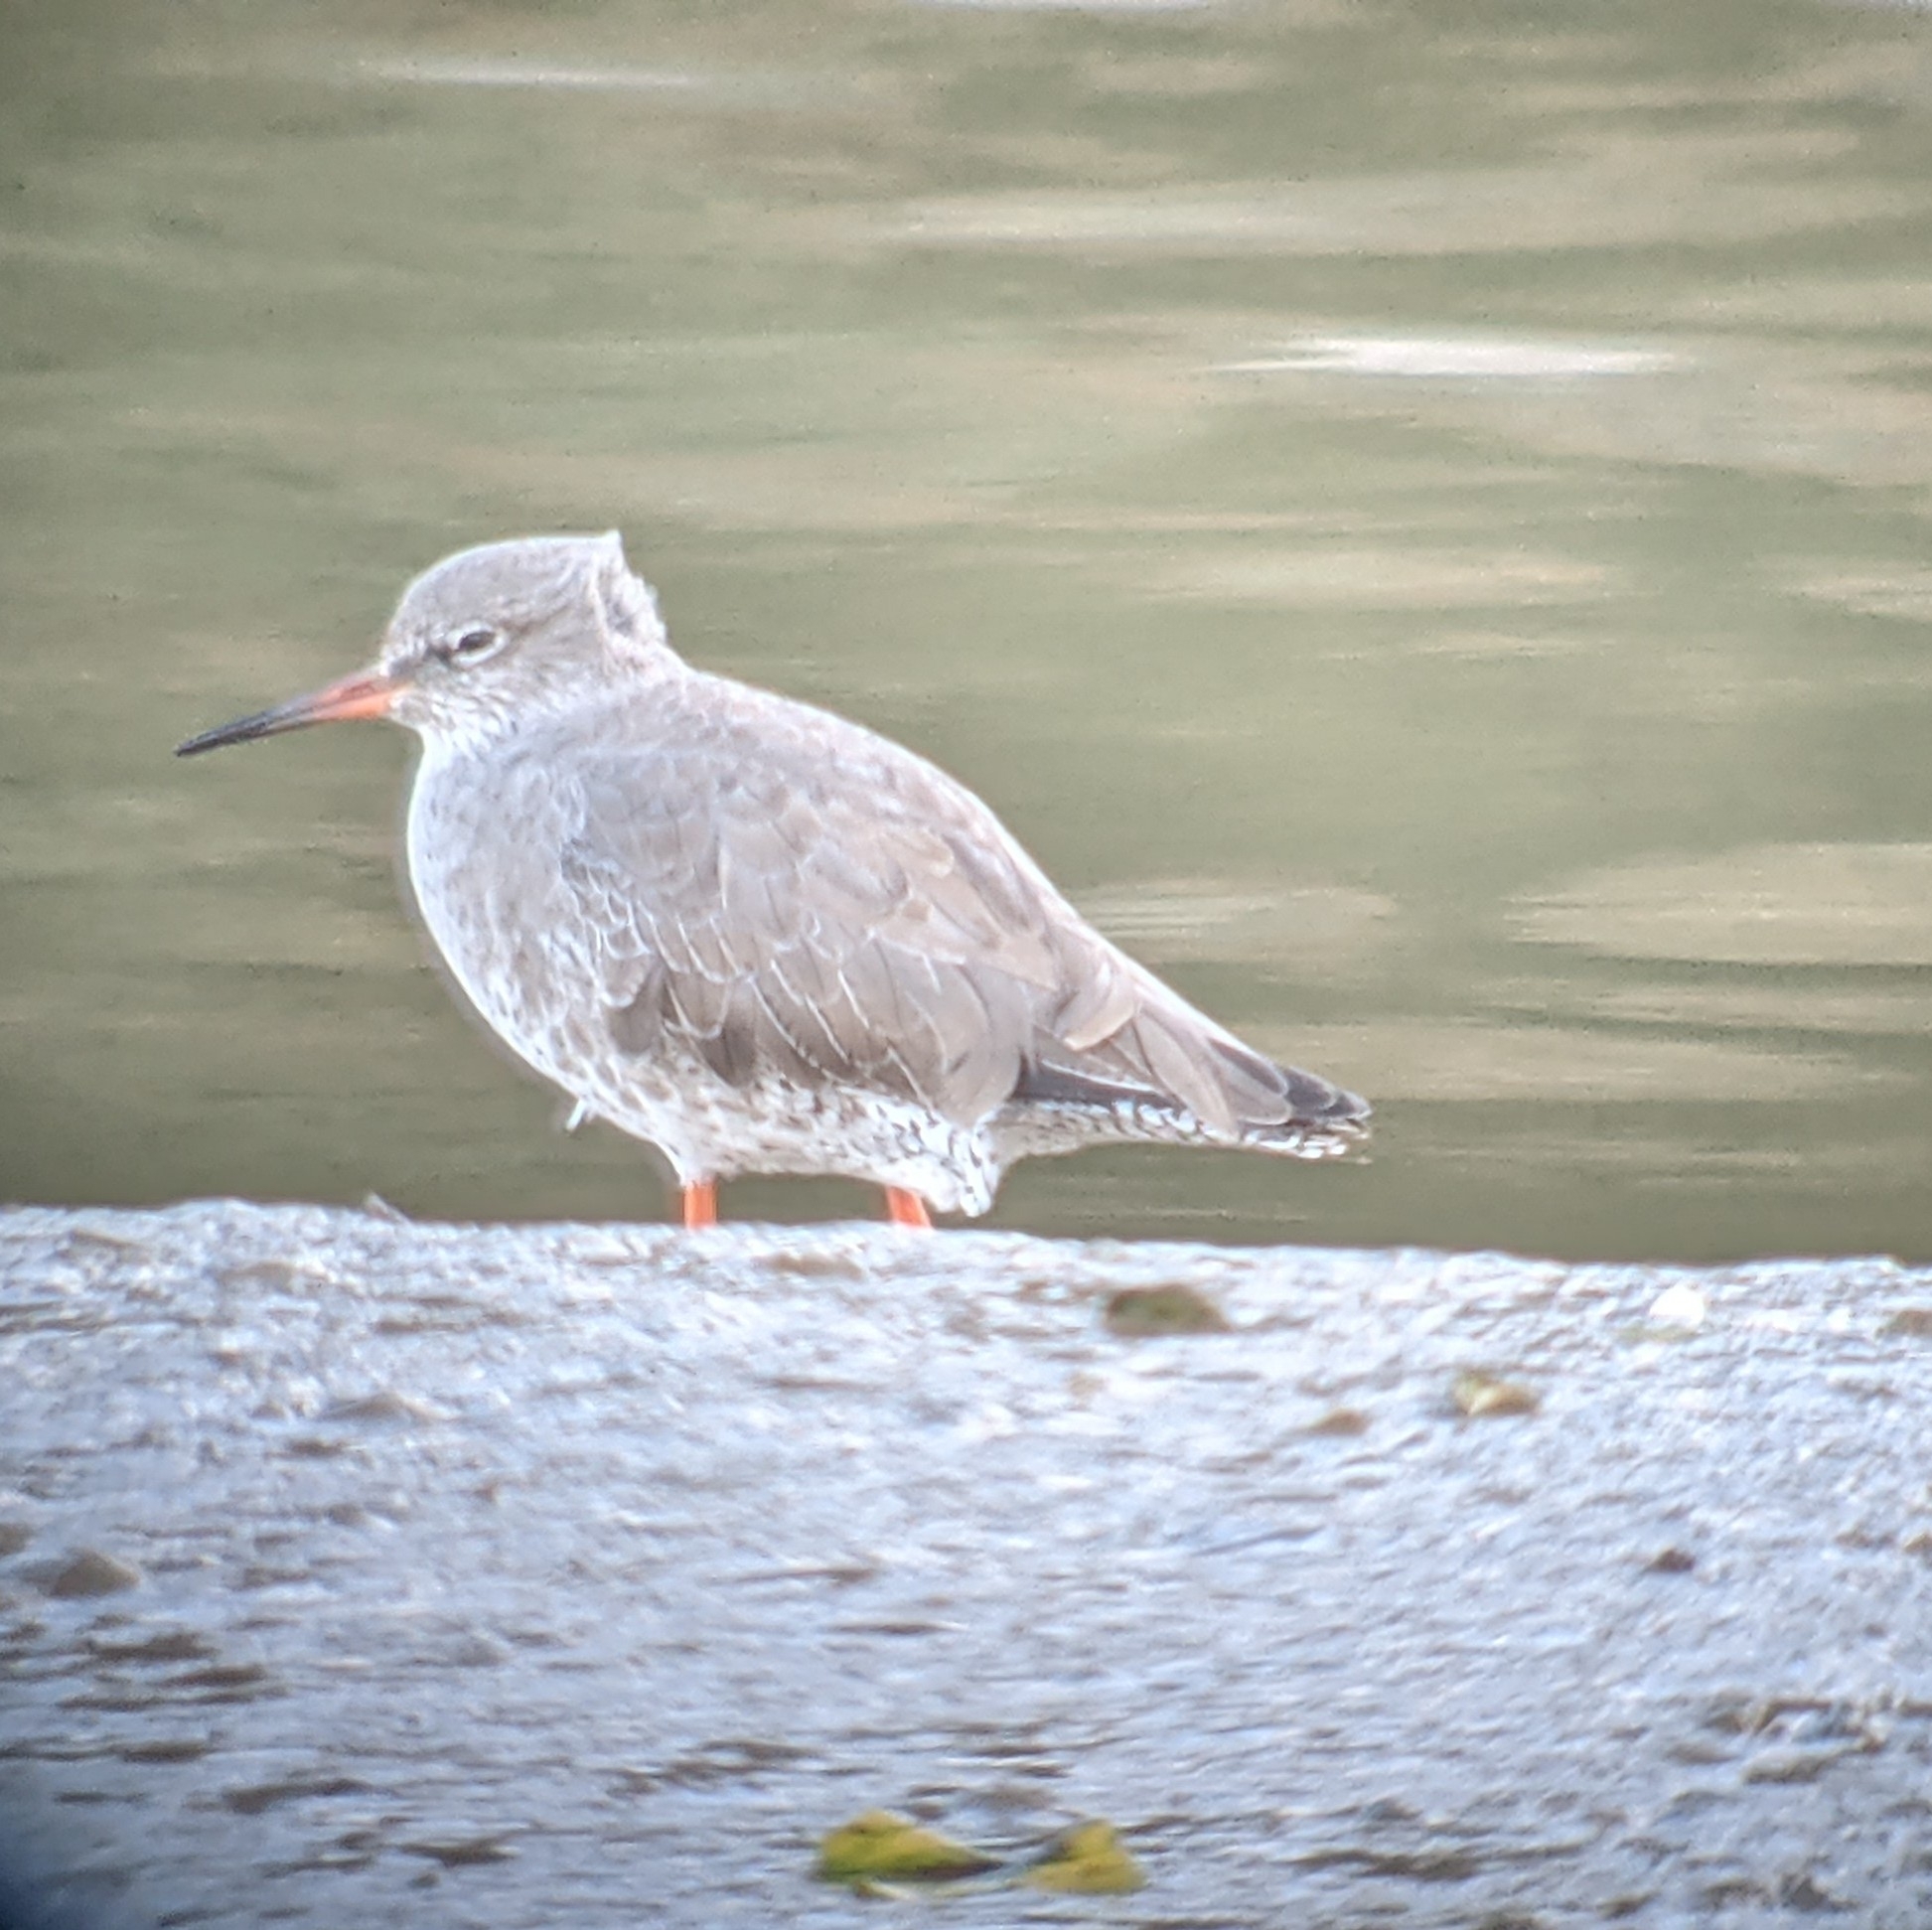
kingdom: Animalia
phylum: Chordata
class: Aves
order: Charadriiformes
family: Scolopacidae
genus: Tringa
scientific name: Tringa totanus
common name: Common redshank
